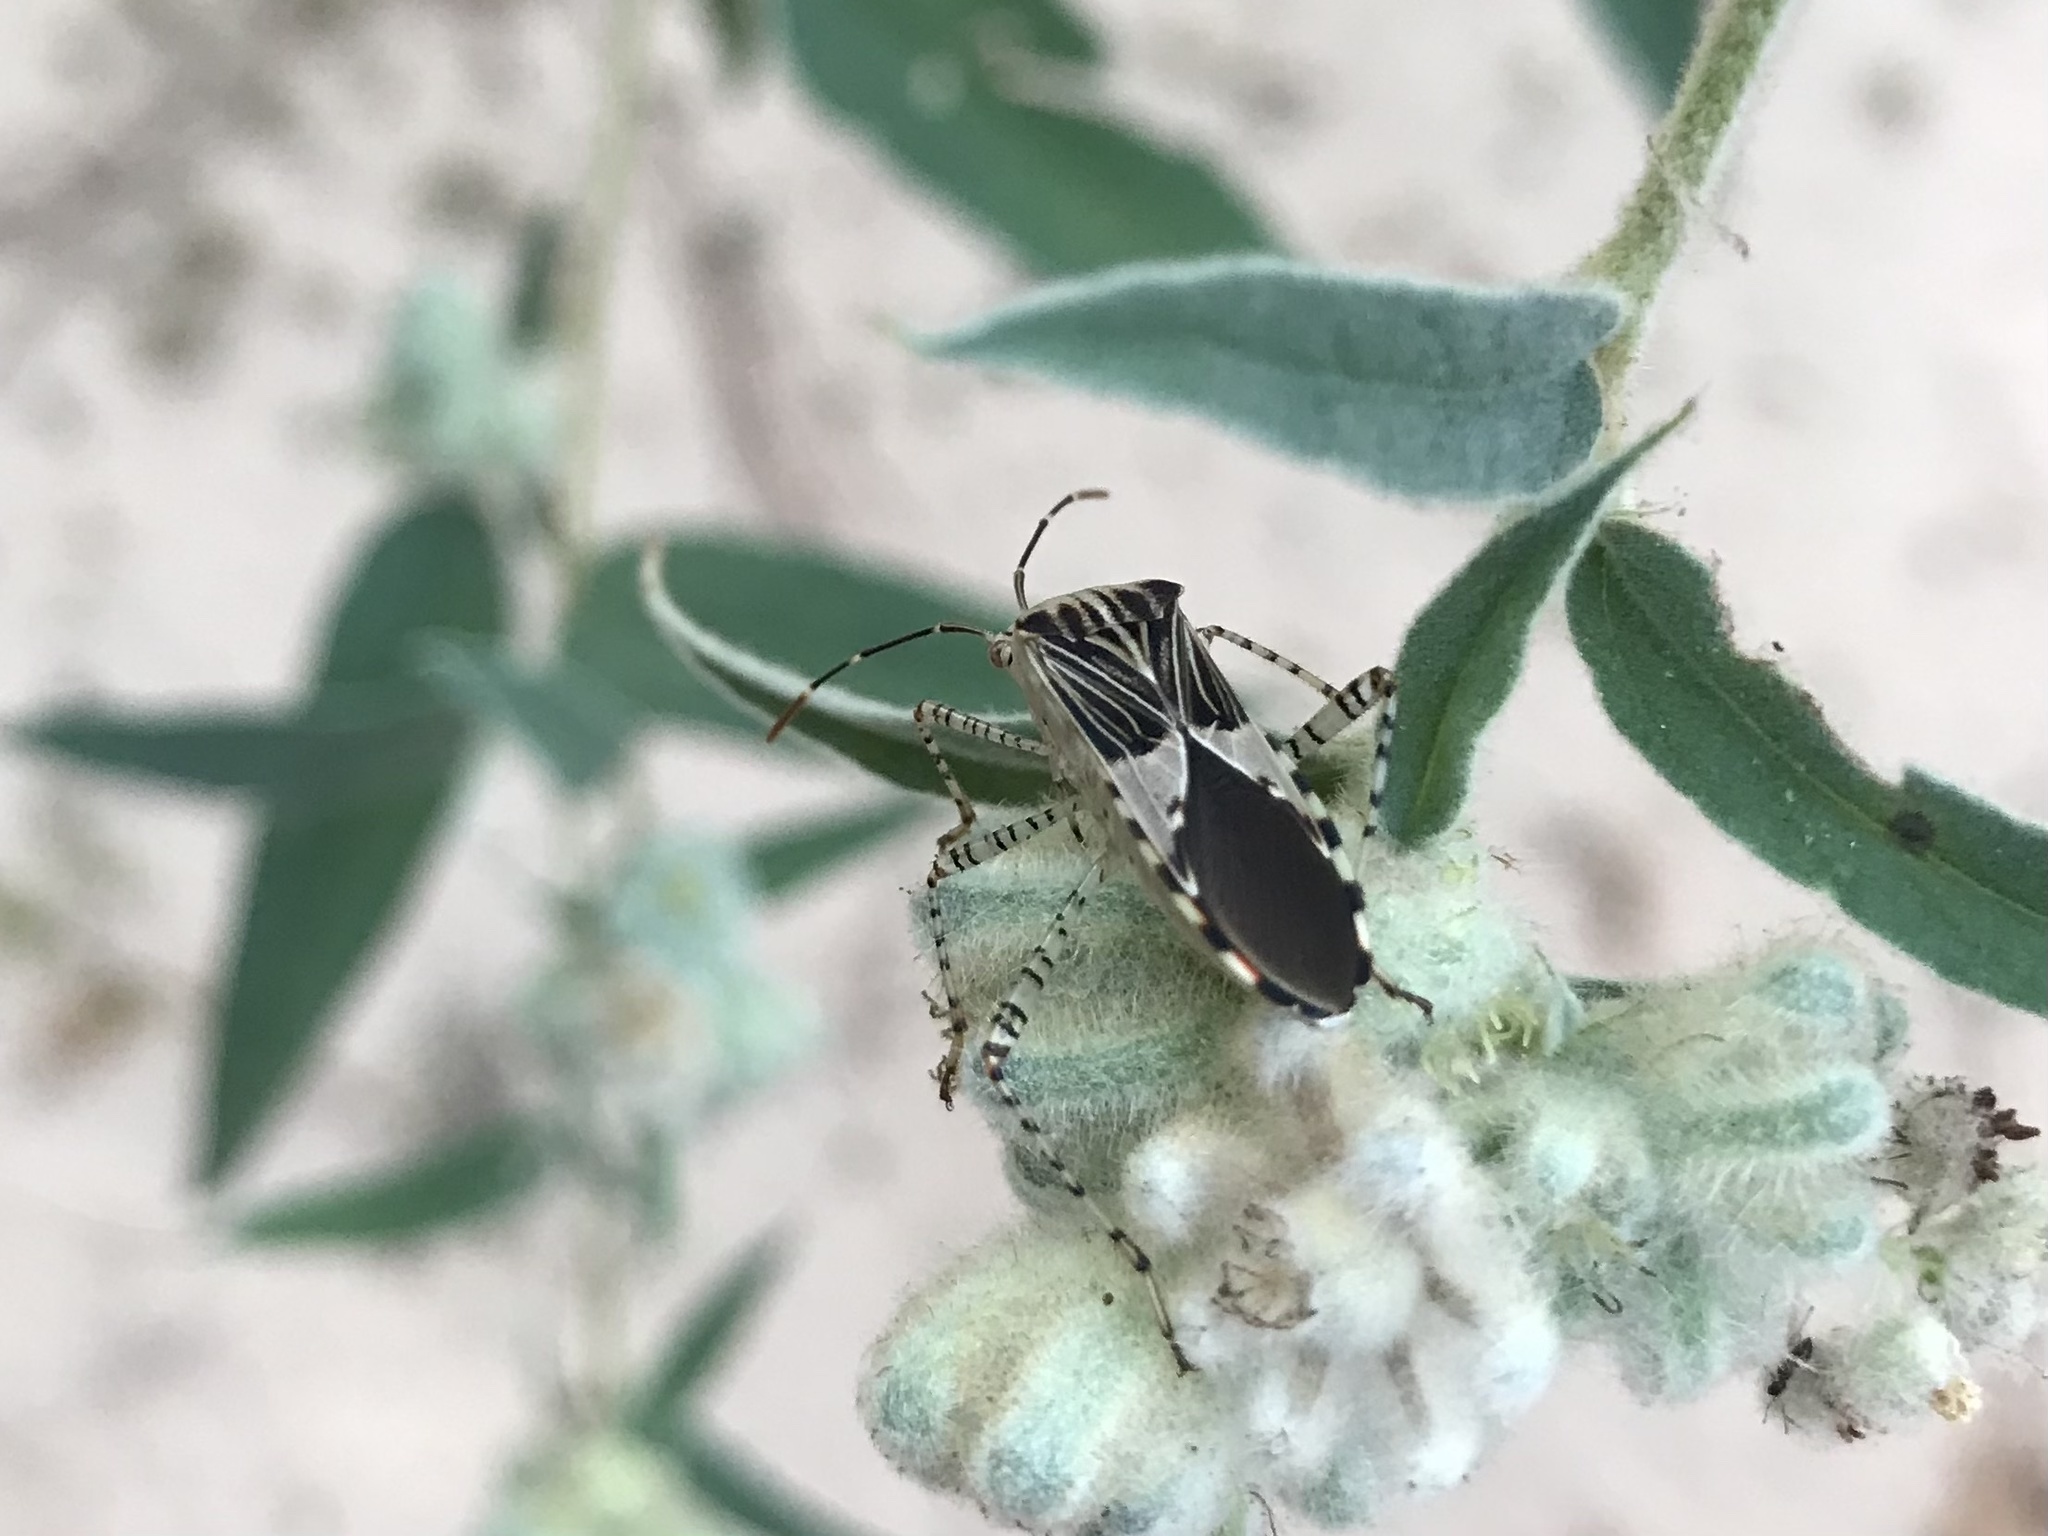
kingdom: Animalia
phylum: Arthropoda
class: Insecta
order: Hemiptera
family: Coreidae
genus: Hypselonotus
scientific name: Hypselonotus punctiventris
